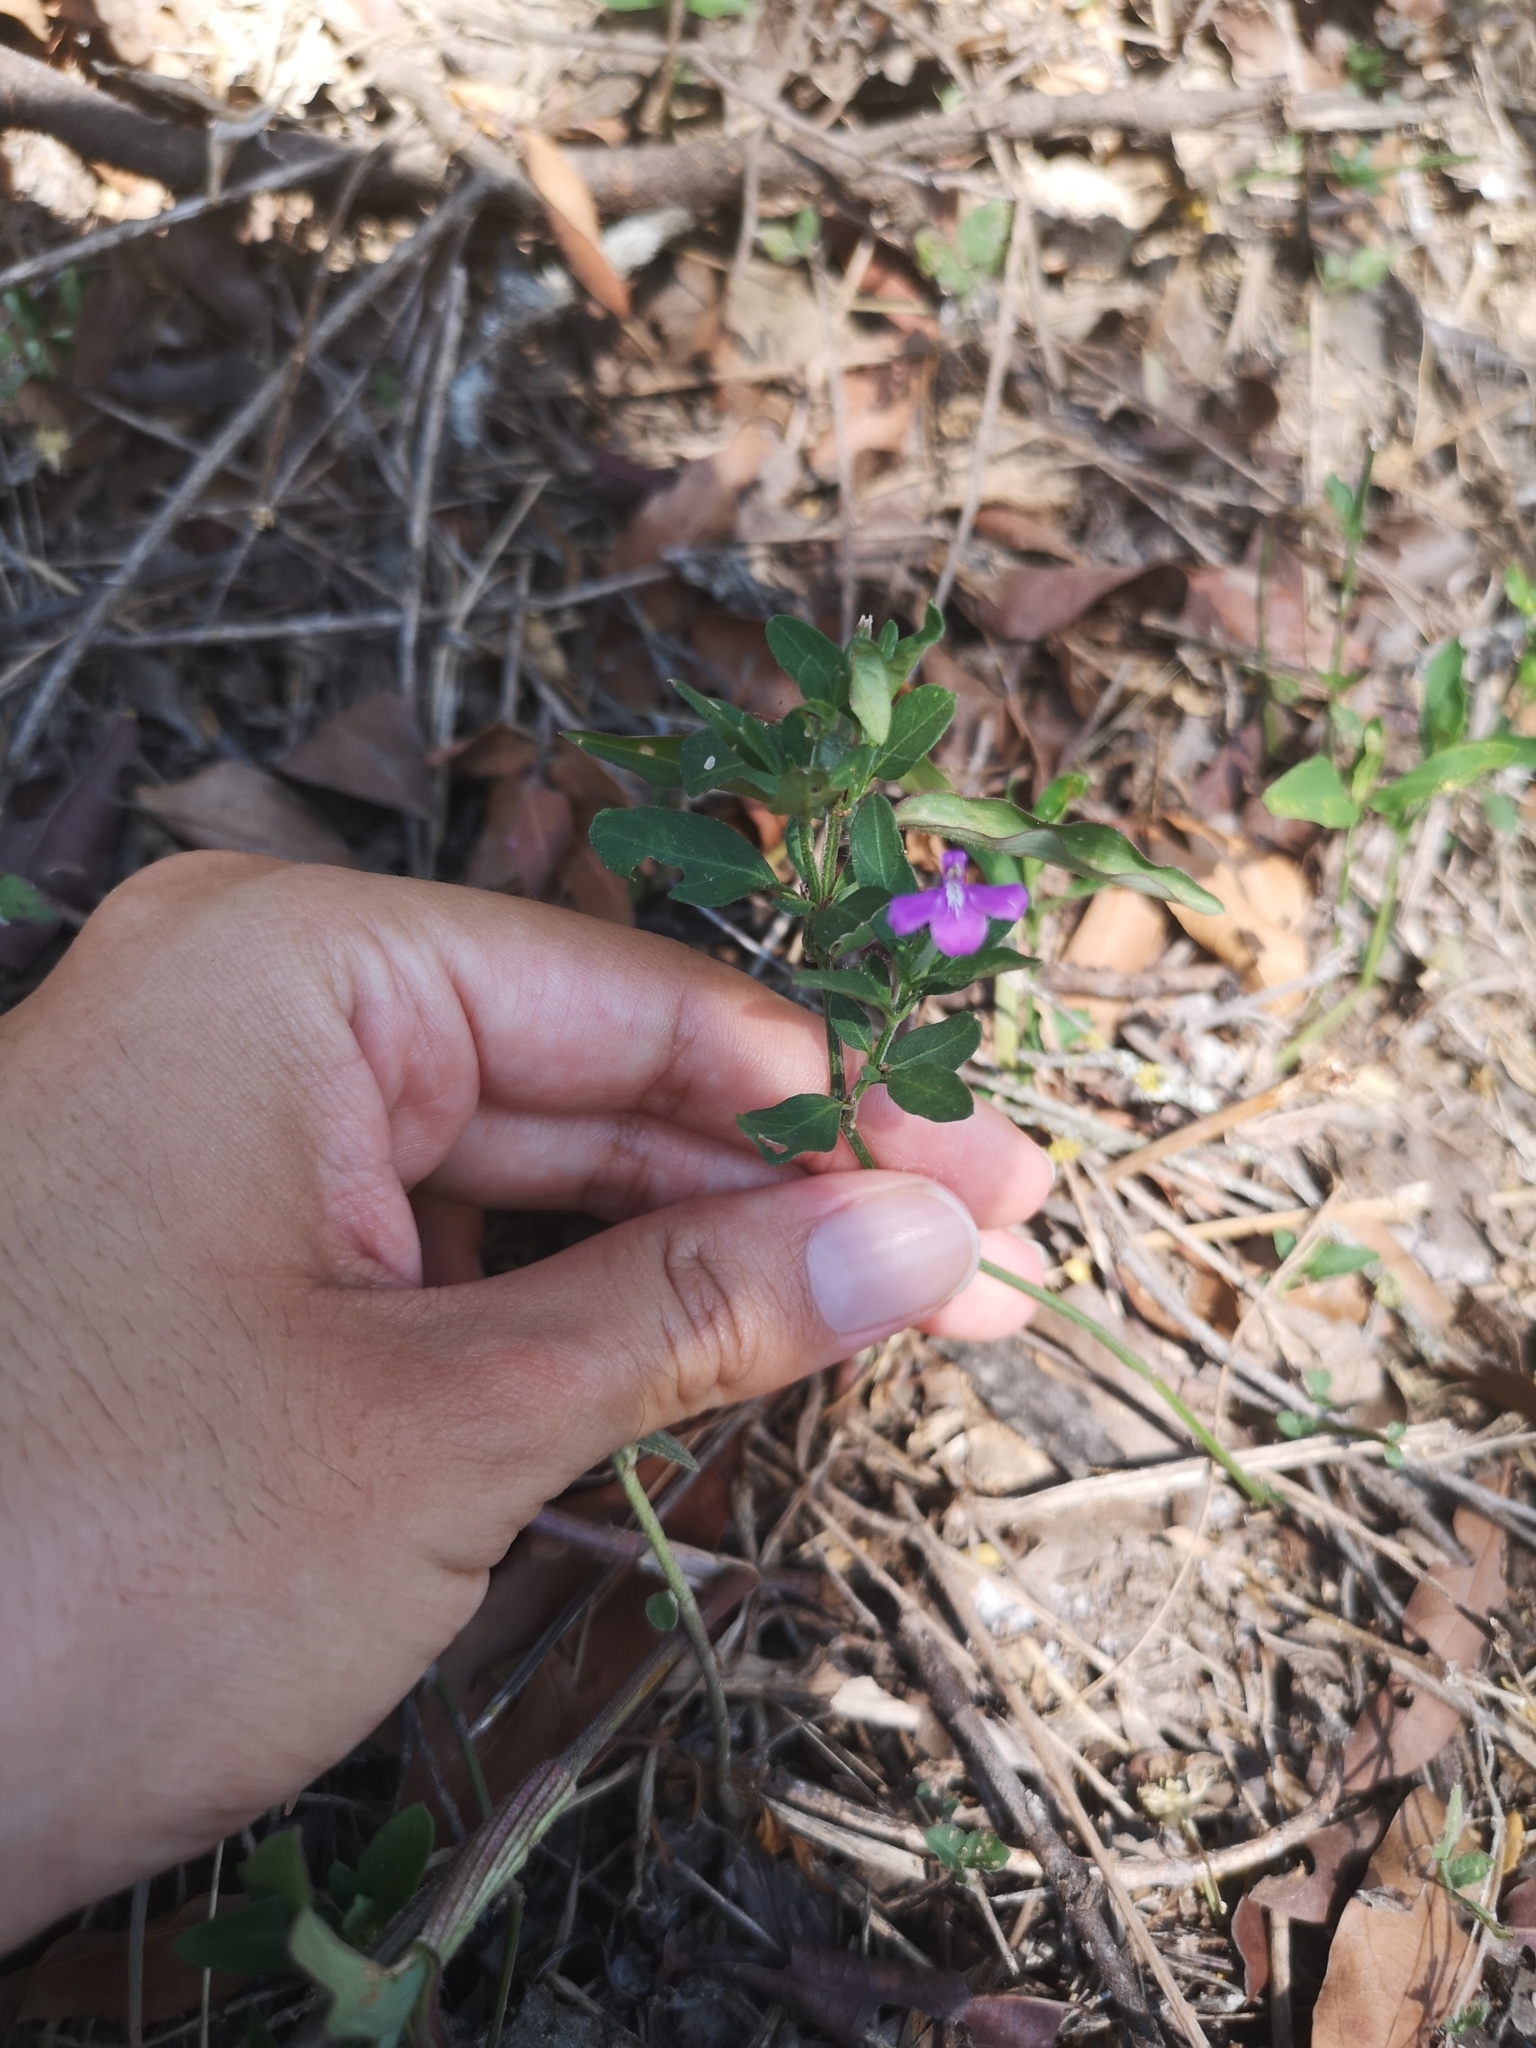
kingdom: Plantae
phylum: Tracheophyta
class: Magnoliopsida
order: Lamiales
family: Acanthaceae
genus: Justicia
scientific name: Justicia pilosella
